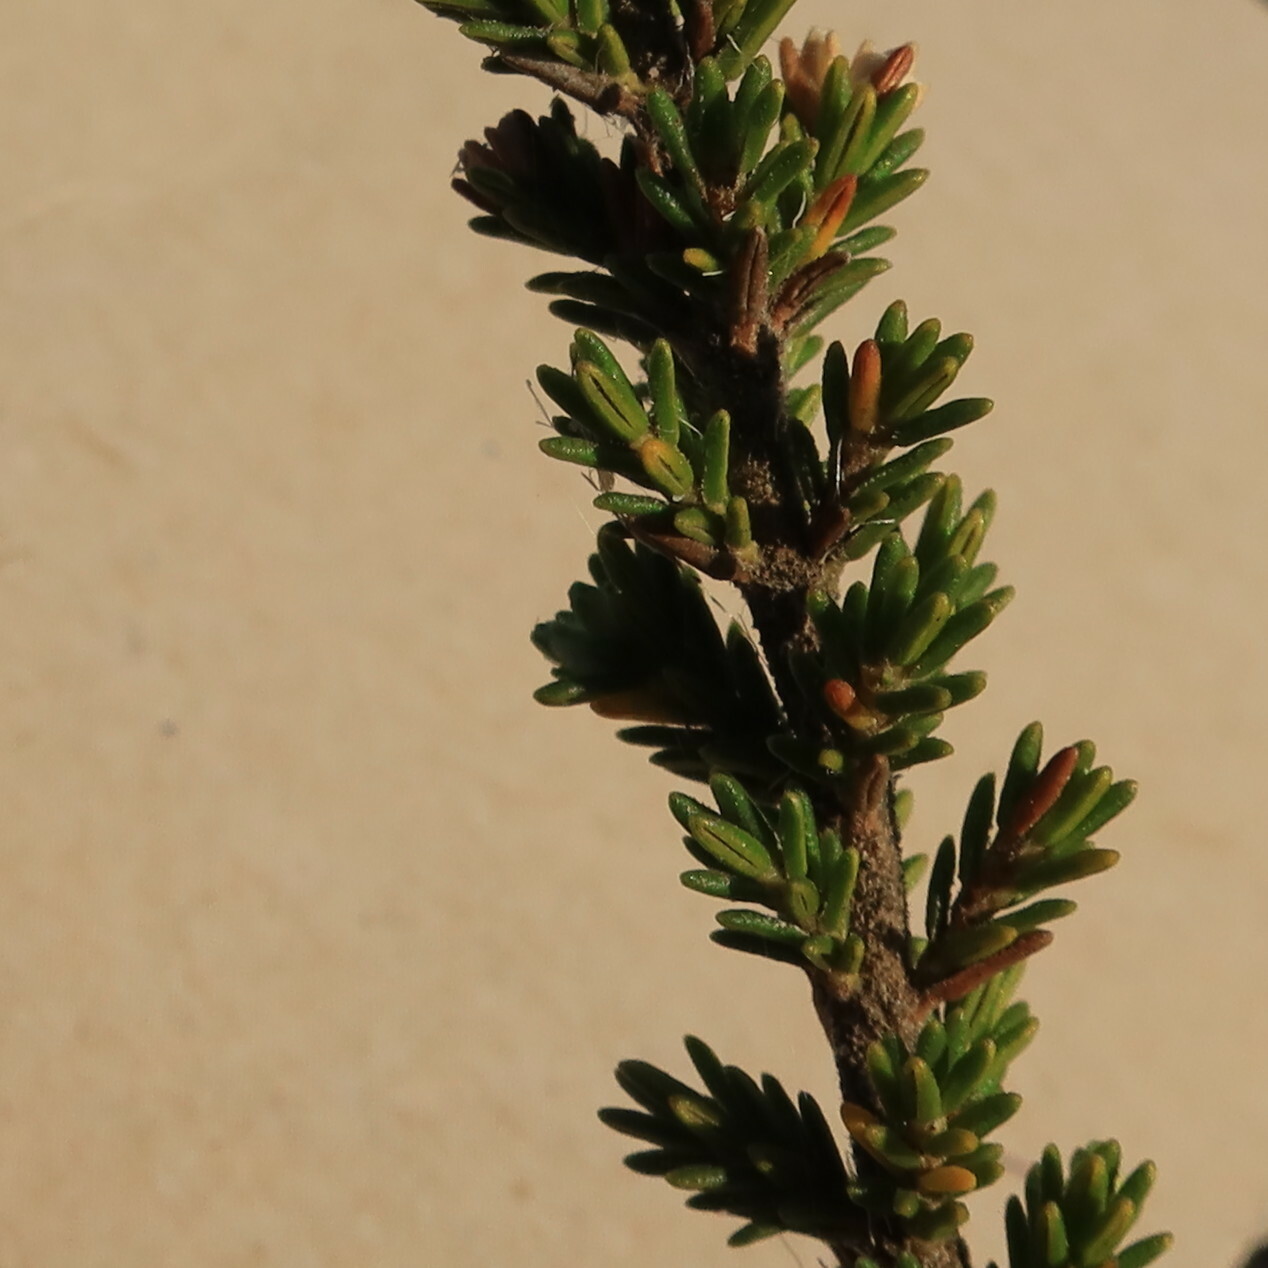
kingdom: Plantae
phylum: Tracheophyta
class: Magnoliopsida
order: Ericales
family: Ericaceae
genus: Erica
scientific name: Erica imbricata
